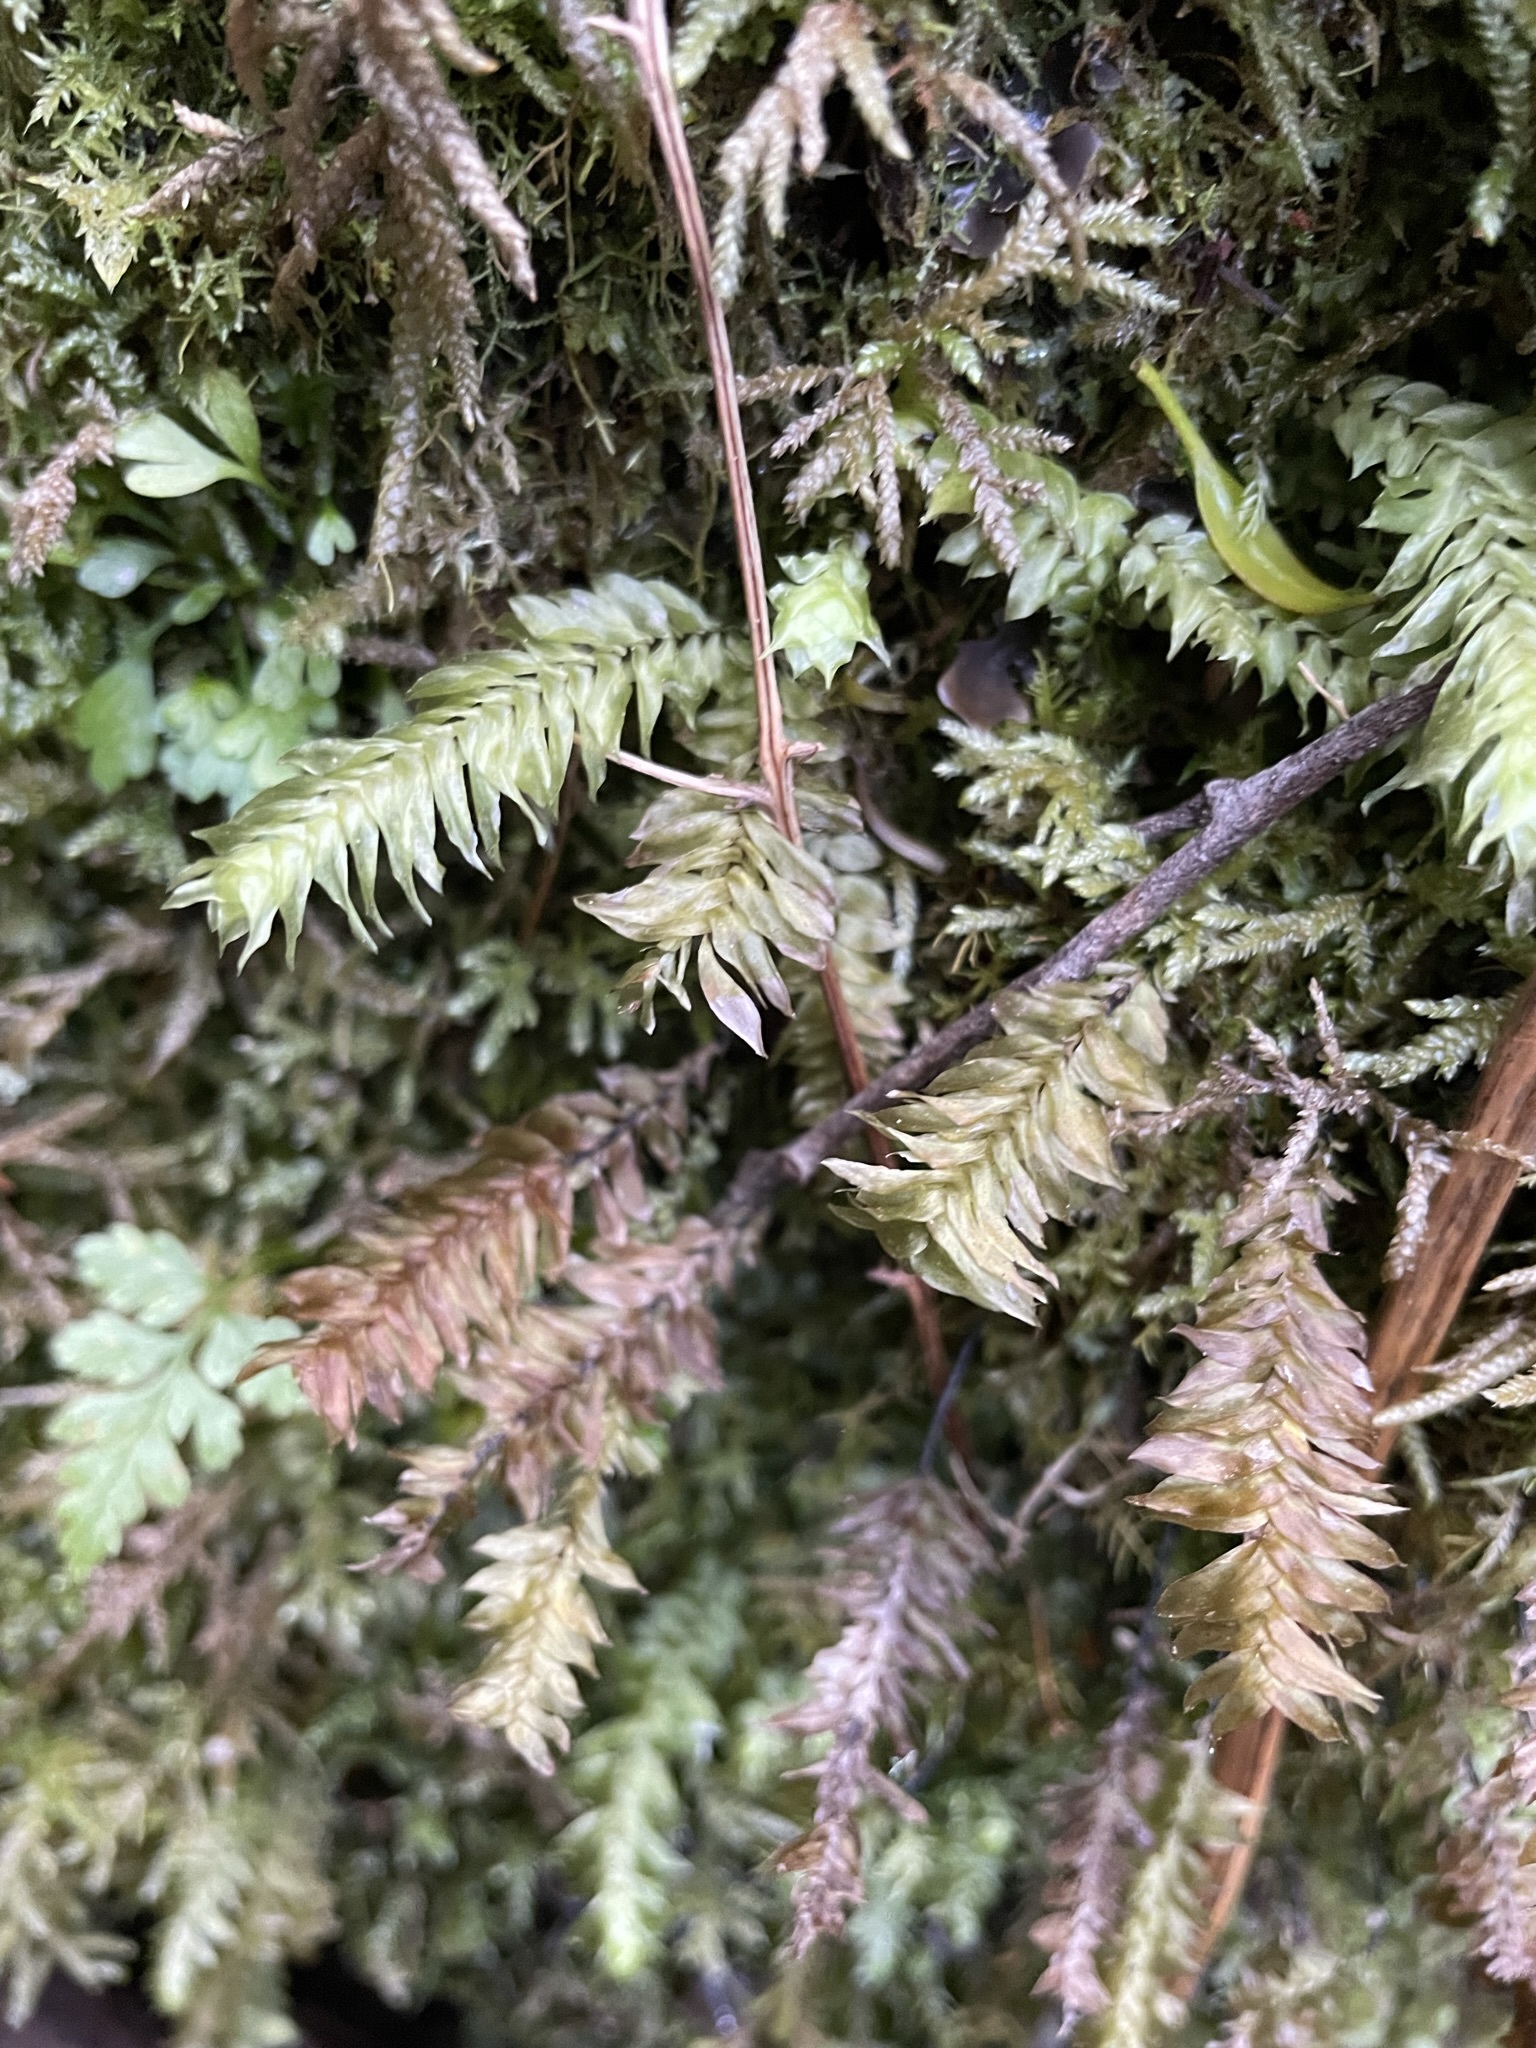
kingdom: Plantae
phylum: Bryophyta
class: Bryopsida
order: Hypopterygiales
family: Hypopterygiaceae
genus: Cyathophorum
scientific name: Cyathophorum bulbosum
